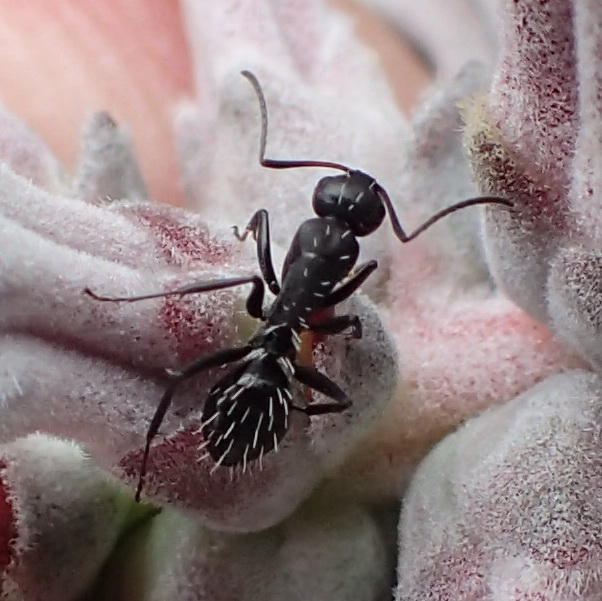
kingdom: Animalia
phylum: Arthropoda
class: Insecta
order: Hymenoptera
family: Formicidae
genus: Camponotus
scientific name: Camponotus niveosetosus
